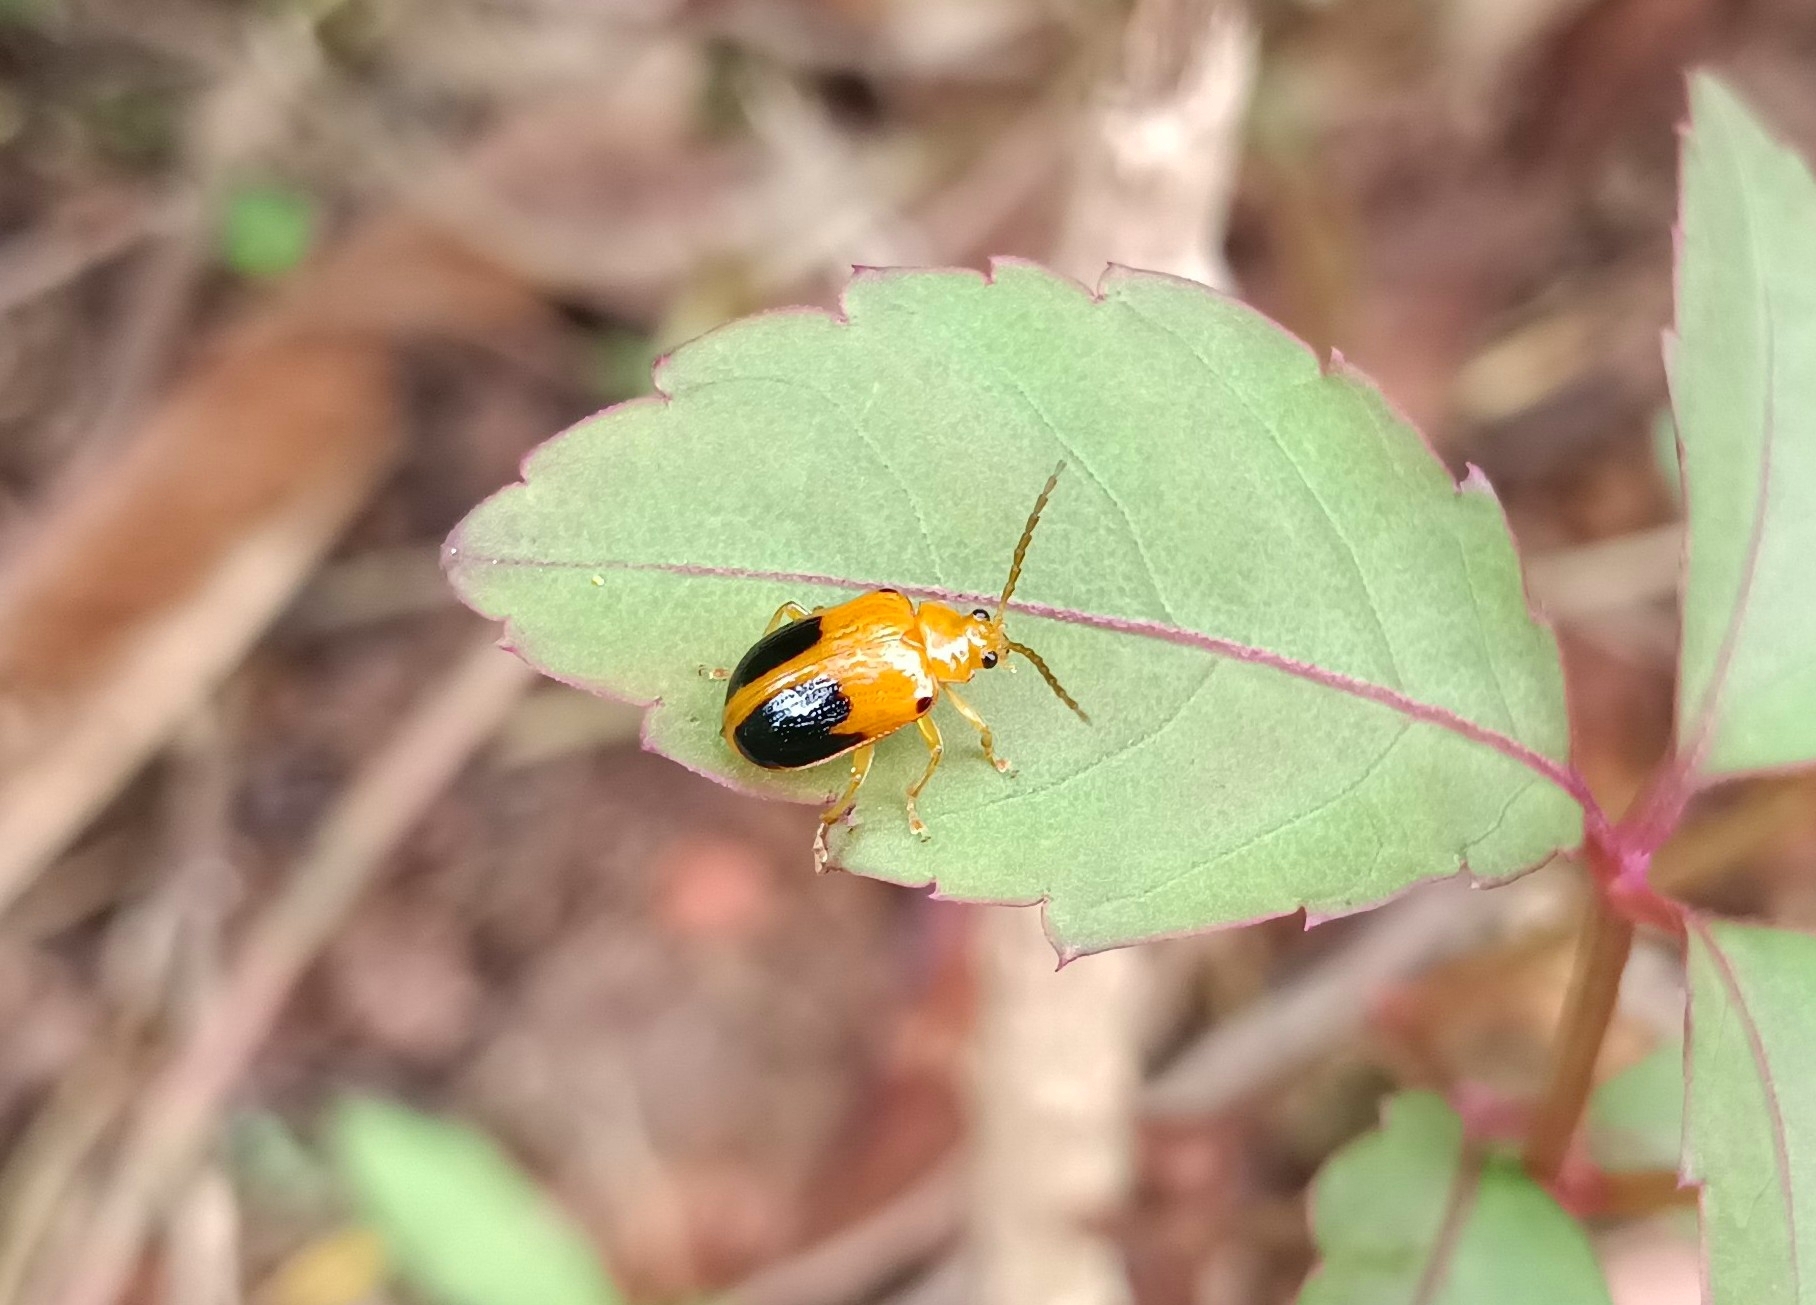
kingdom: Animalia
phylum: Arthropoda
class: Insecta
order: Coleoptera
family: Chrysomelidae
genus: Sphenoraia
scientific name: Sphenoraia
